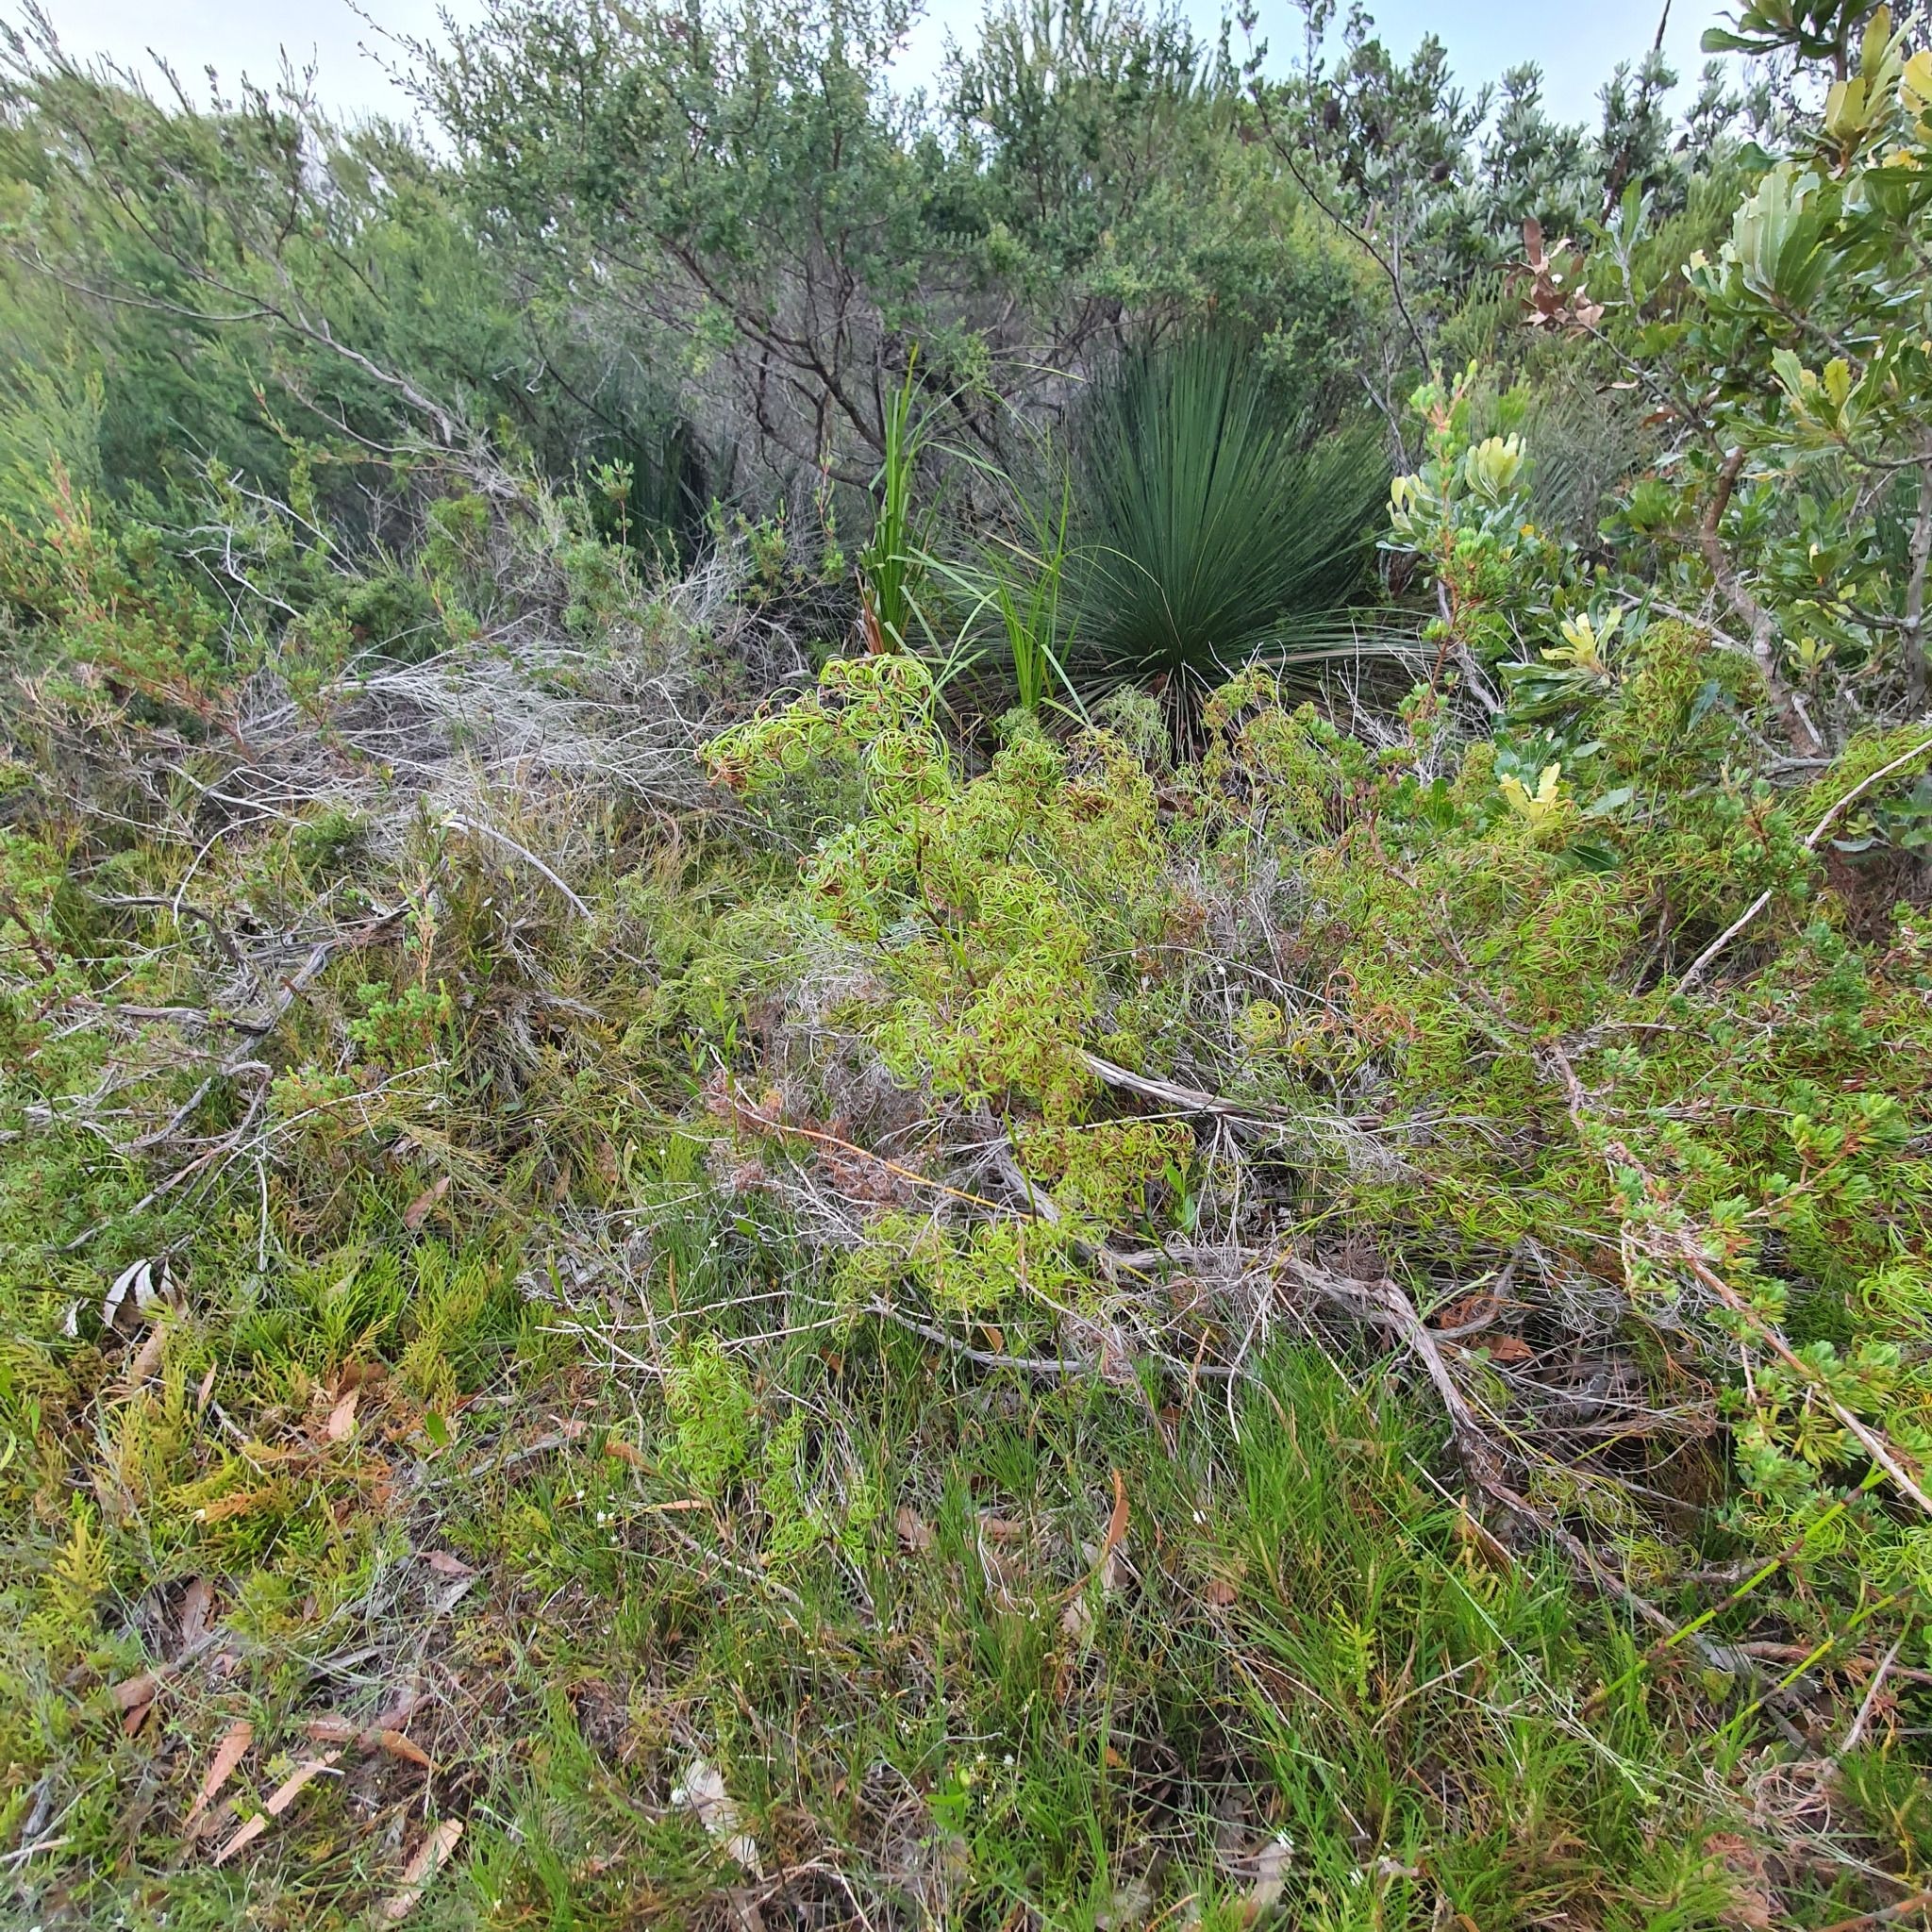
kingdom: Plantae
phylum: Tracheophyta
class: Liliopsida
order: Poales
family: Cyperaceae
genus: Caustis
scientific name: Caustis recurvata
